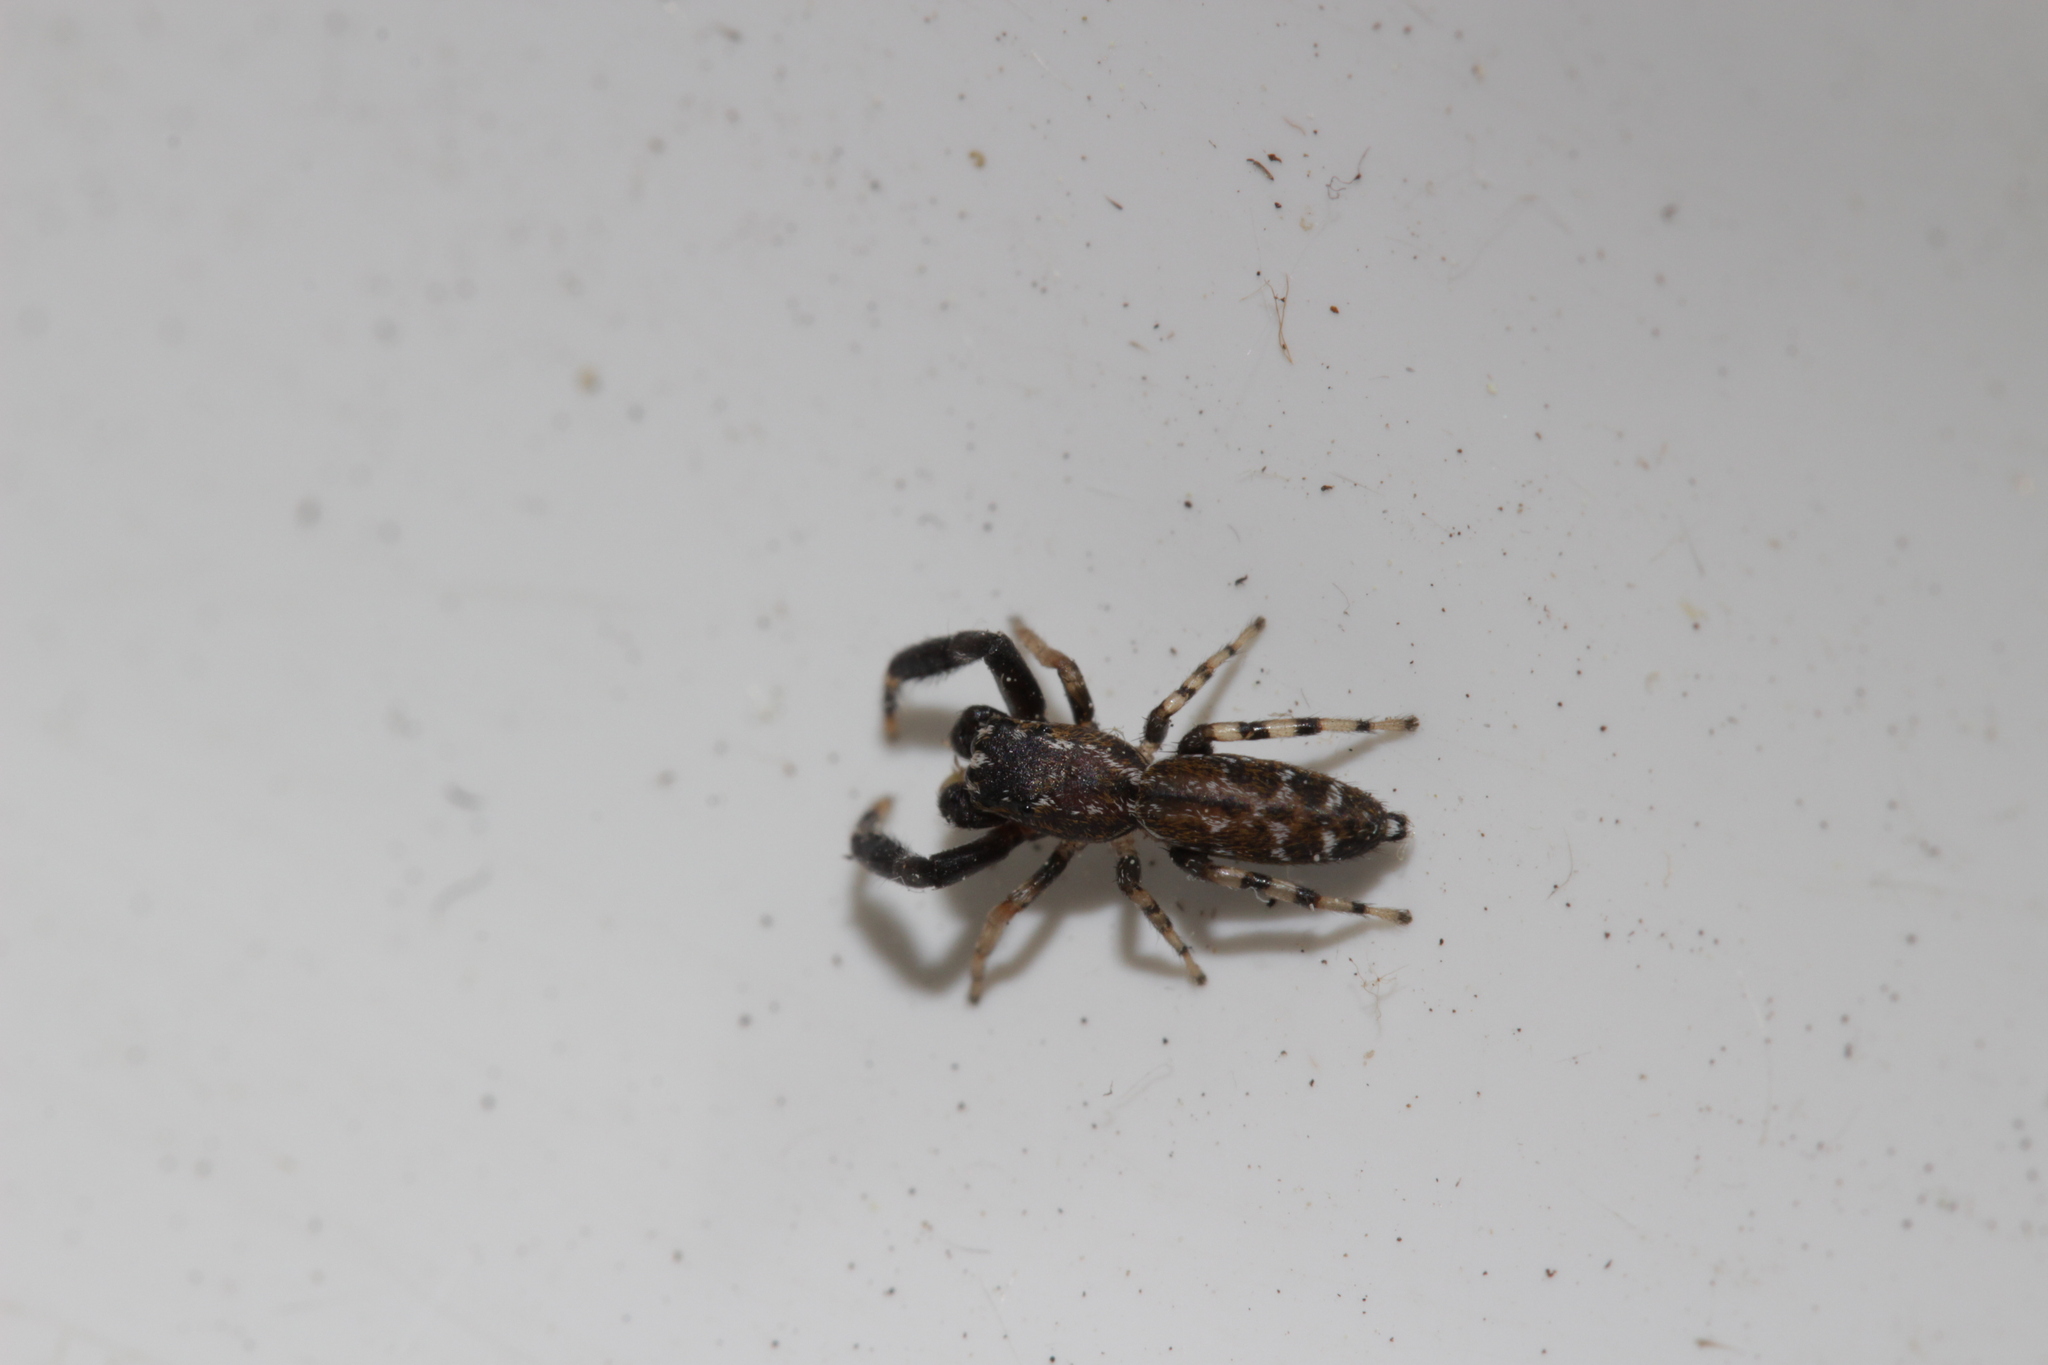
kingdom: Animalia
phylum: Arthropoda
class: Arachnida
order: Araneae
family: Salticidae
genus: Marpissa
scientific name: Marpissa nivoyi
